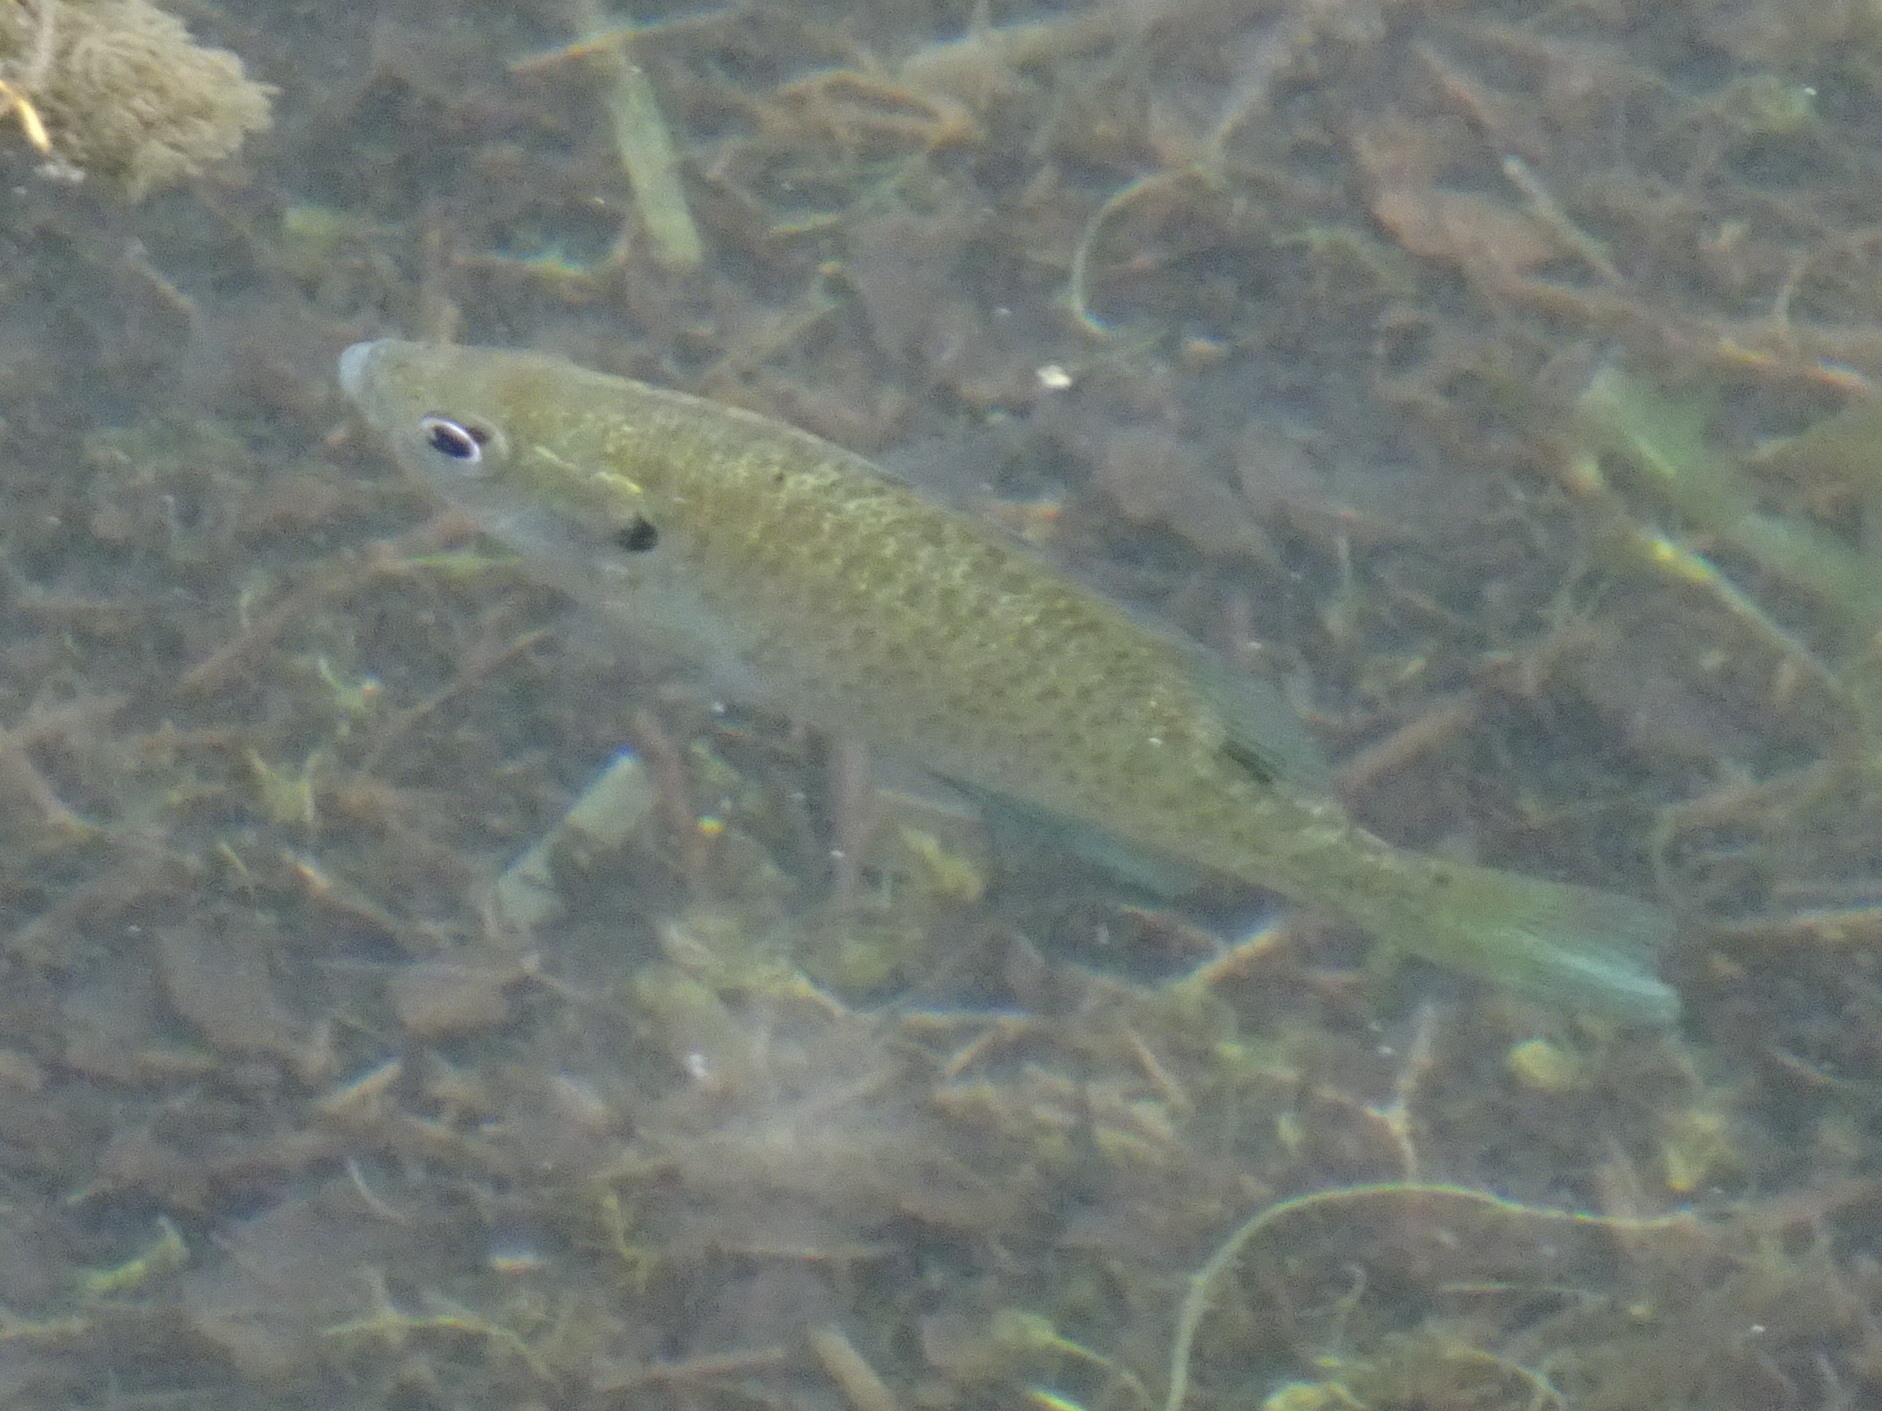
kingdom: Animalia
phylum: Chordata
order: Perciformes
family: Centrarchidae
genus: Lepomis
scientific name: Lepomis macrochirus
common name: Bluegill
